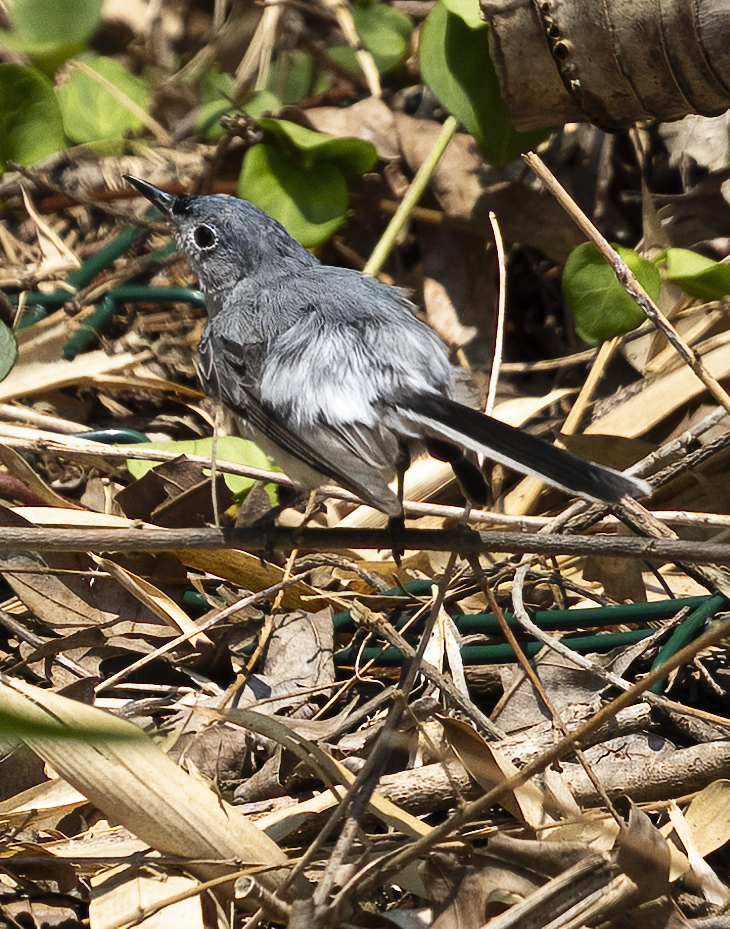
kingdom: Animalia
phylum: Chordata
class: Aves
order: Passeriformes
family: Polioptilidae
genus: Polioptila
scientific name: Polioptila caerulea
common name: Blue-gray gnatcatcher
